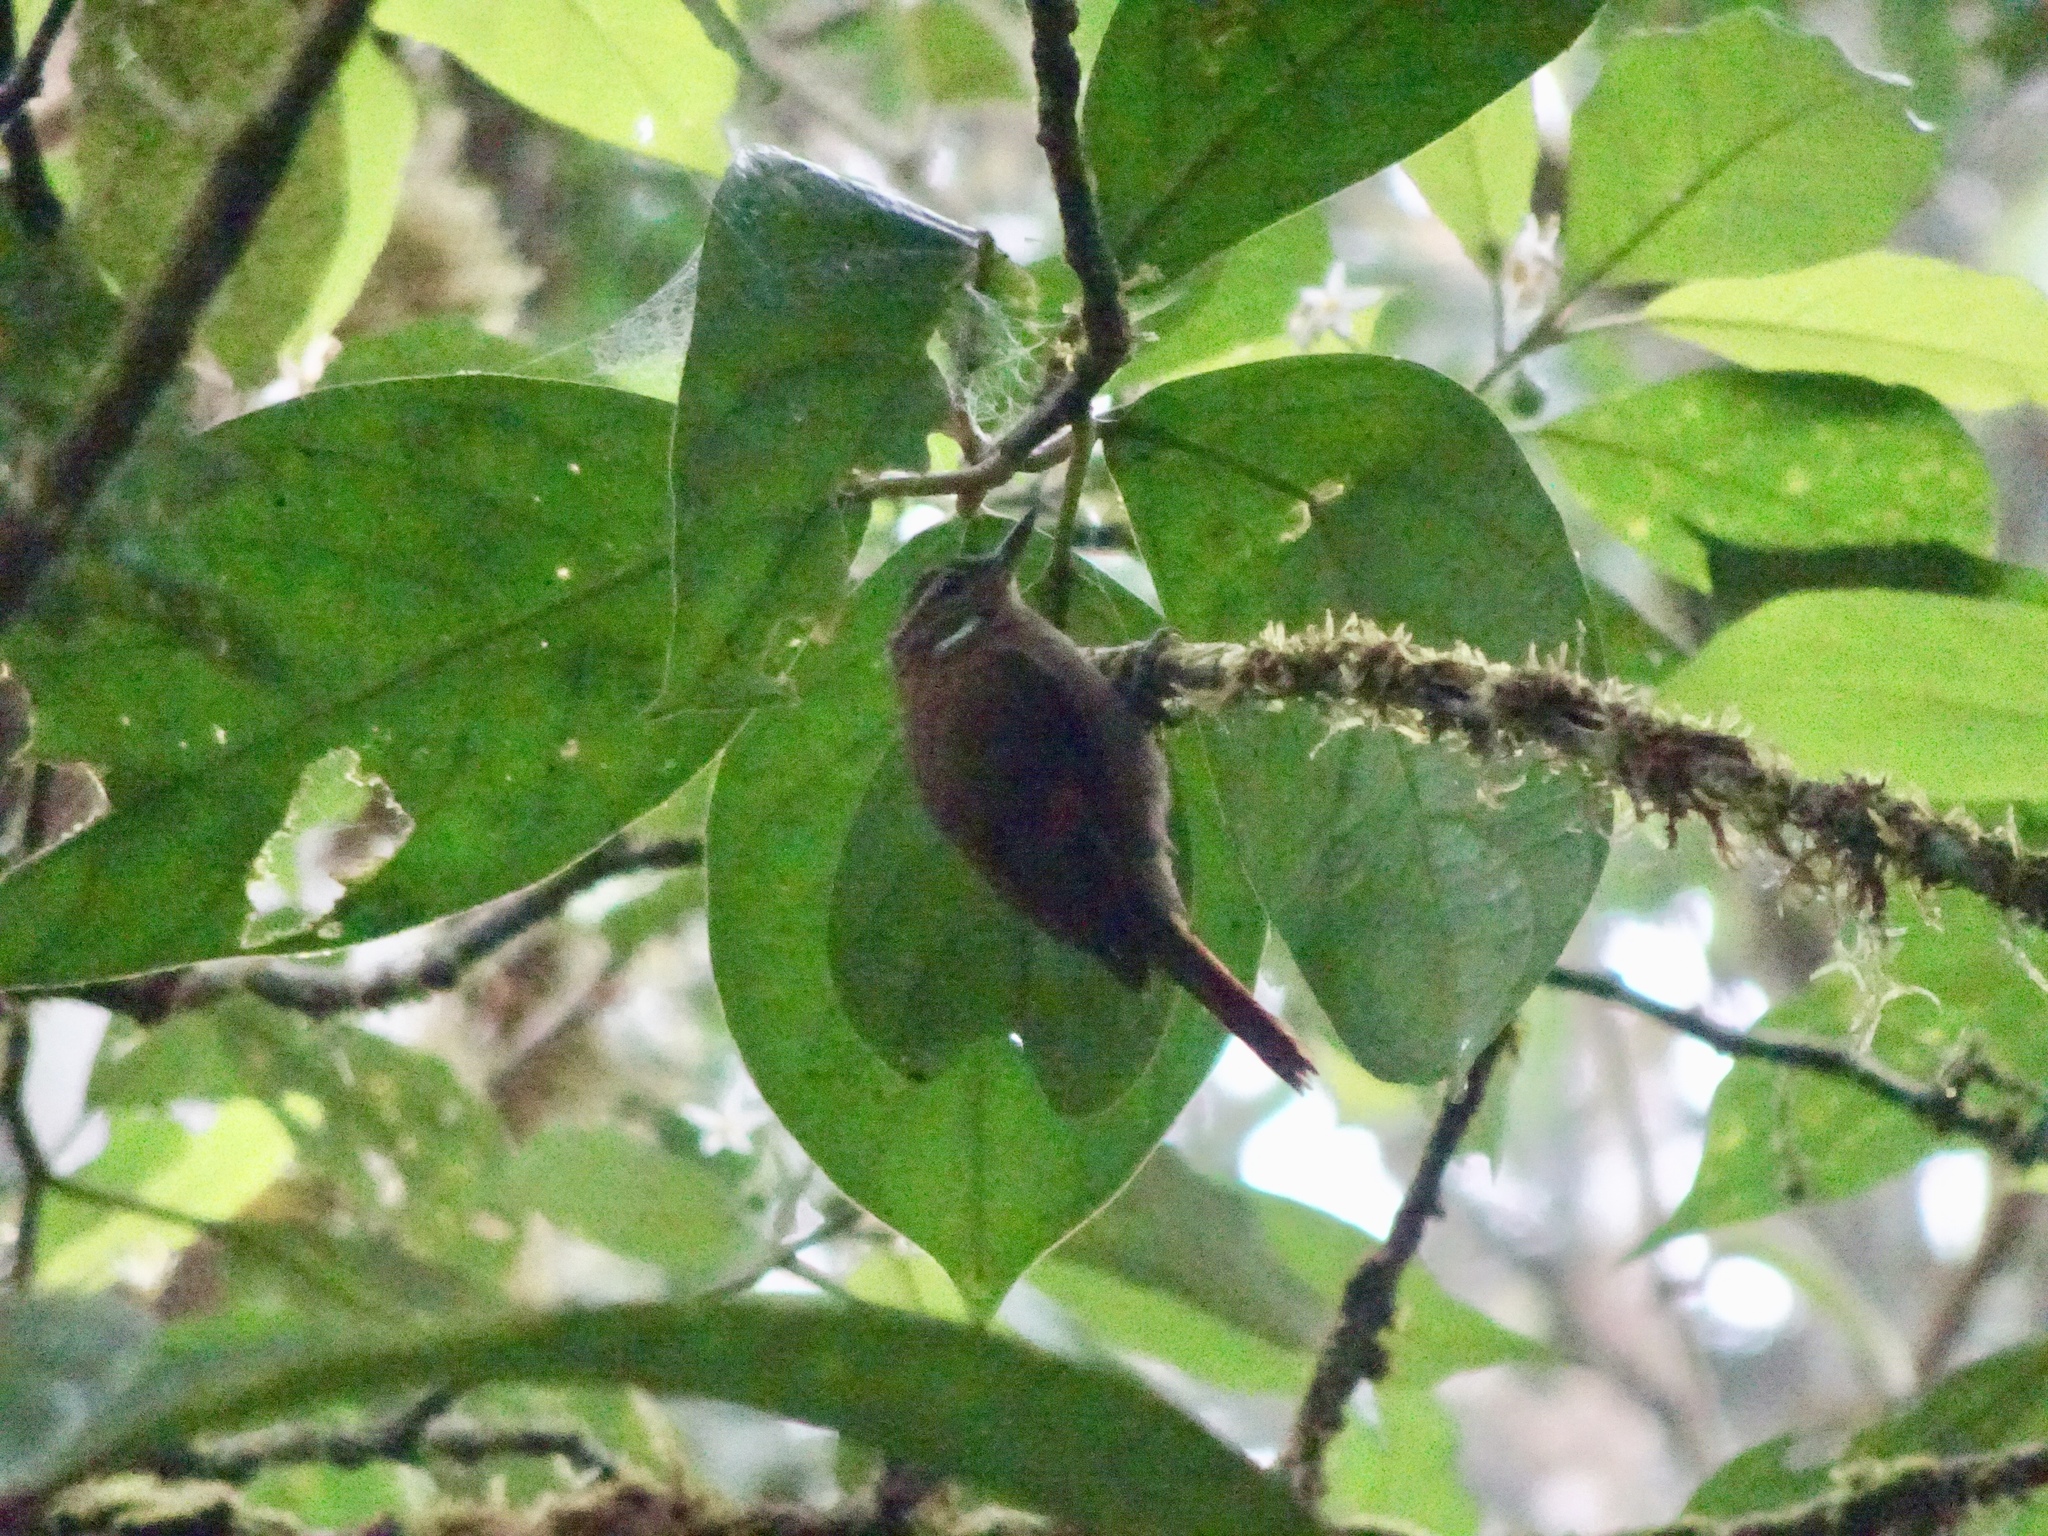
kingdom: Animalia
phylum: Chordata
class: Aves
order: Passeriformes
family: Furnariidae
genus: Xenops
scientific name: Xenops minutus
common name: Plain xenops
